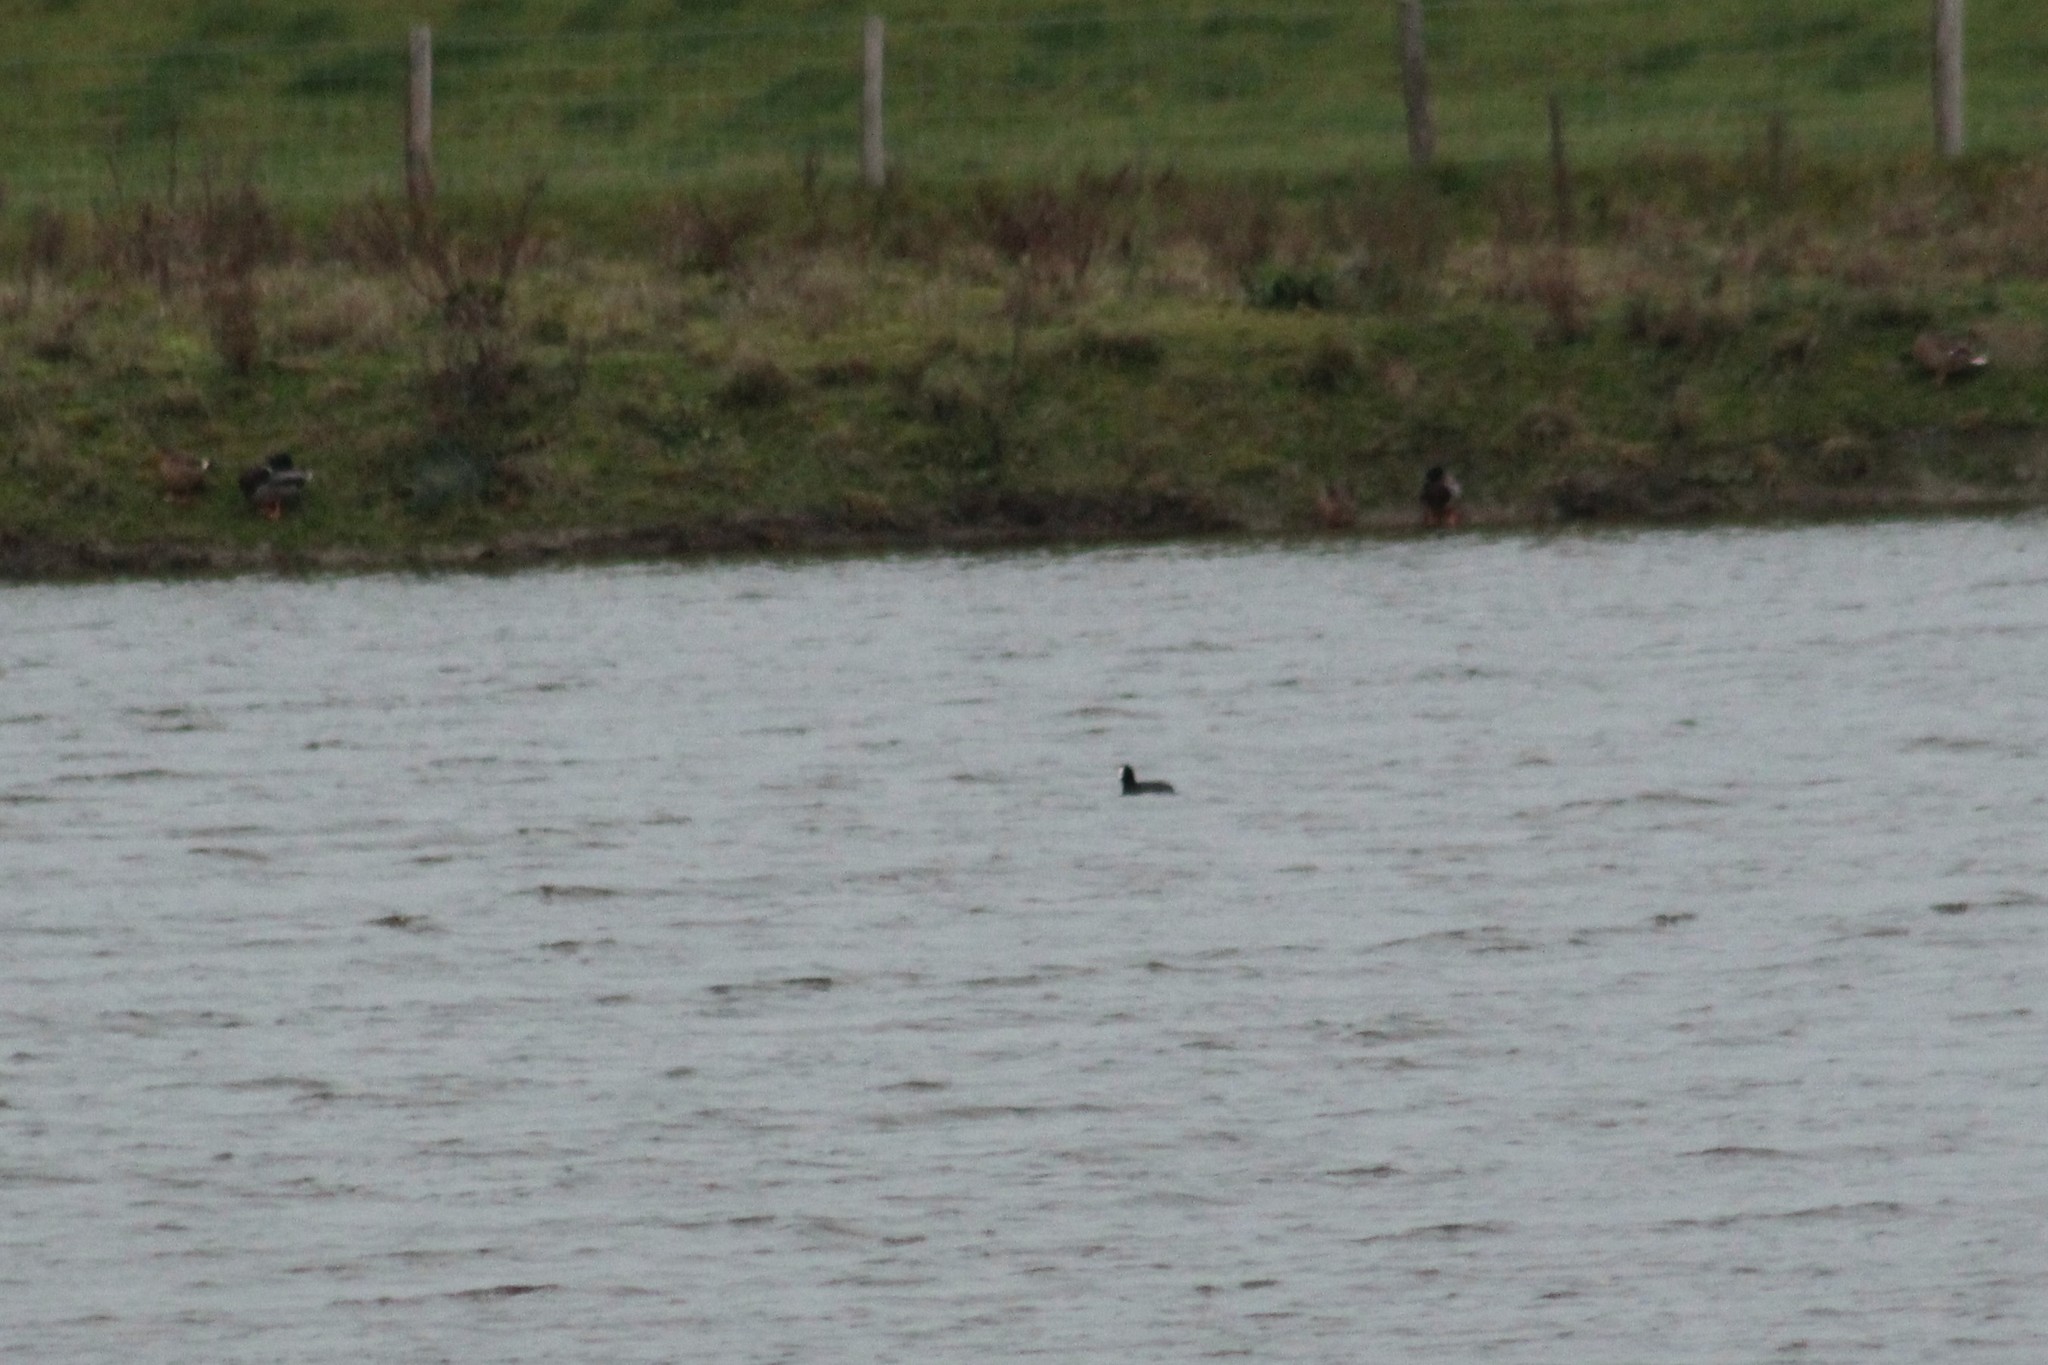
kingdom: Animalia
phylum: Chordata
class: Aves
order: Gruiformes
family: Rallidae
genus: Fulica
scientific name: Fulica atra
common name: Eurasian coot
